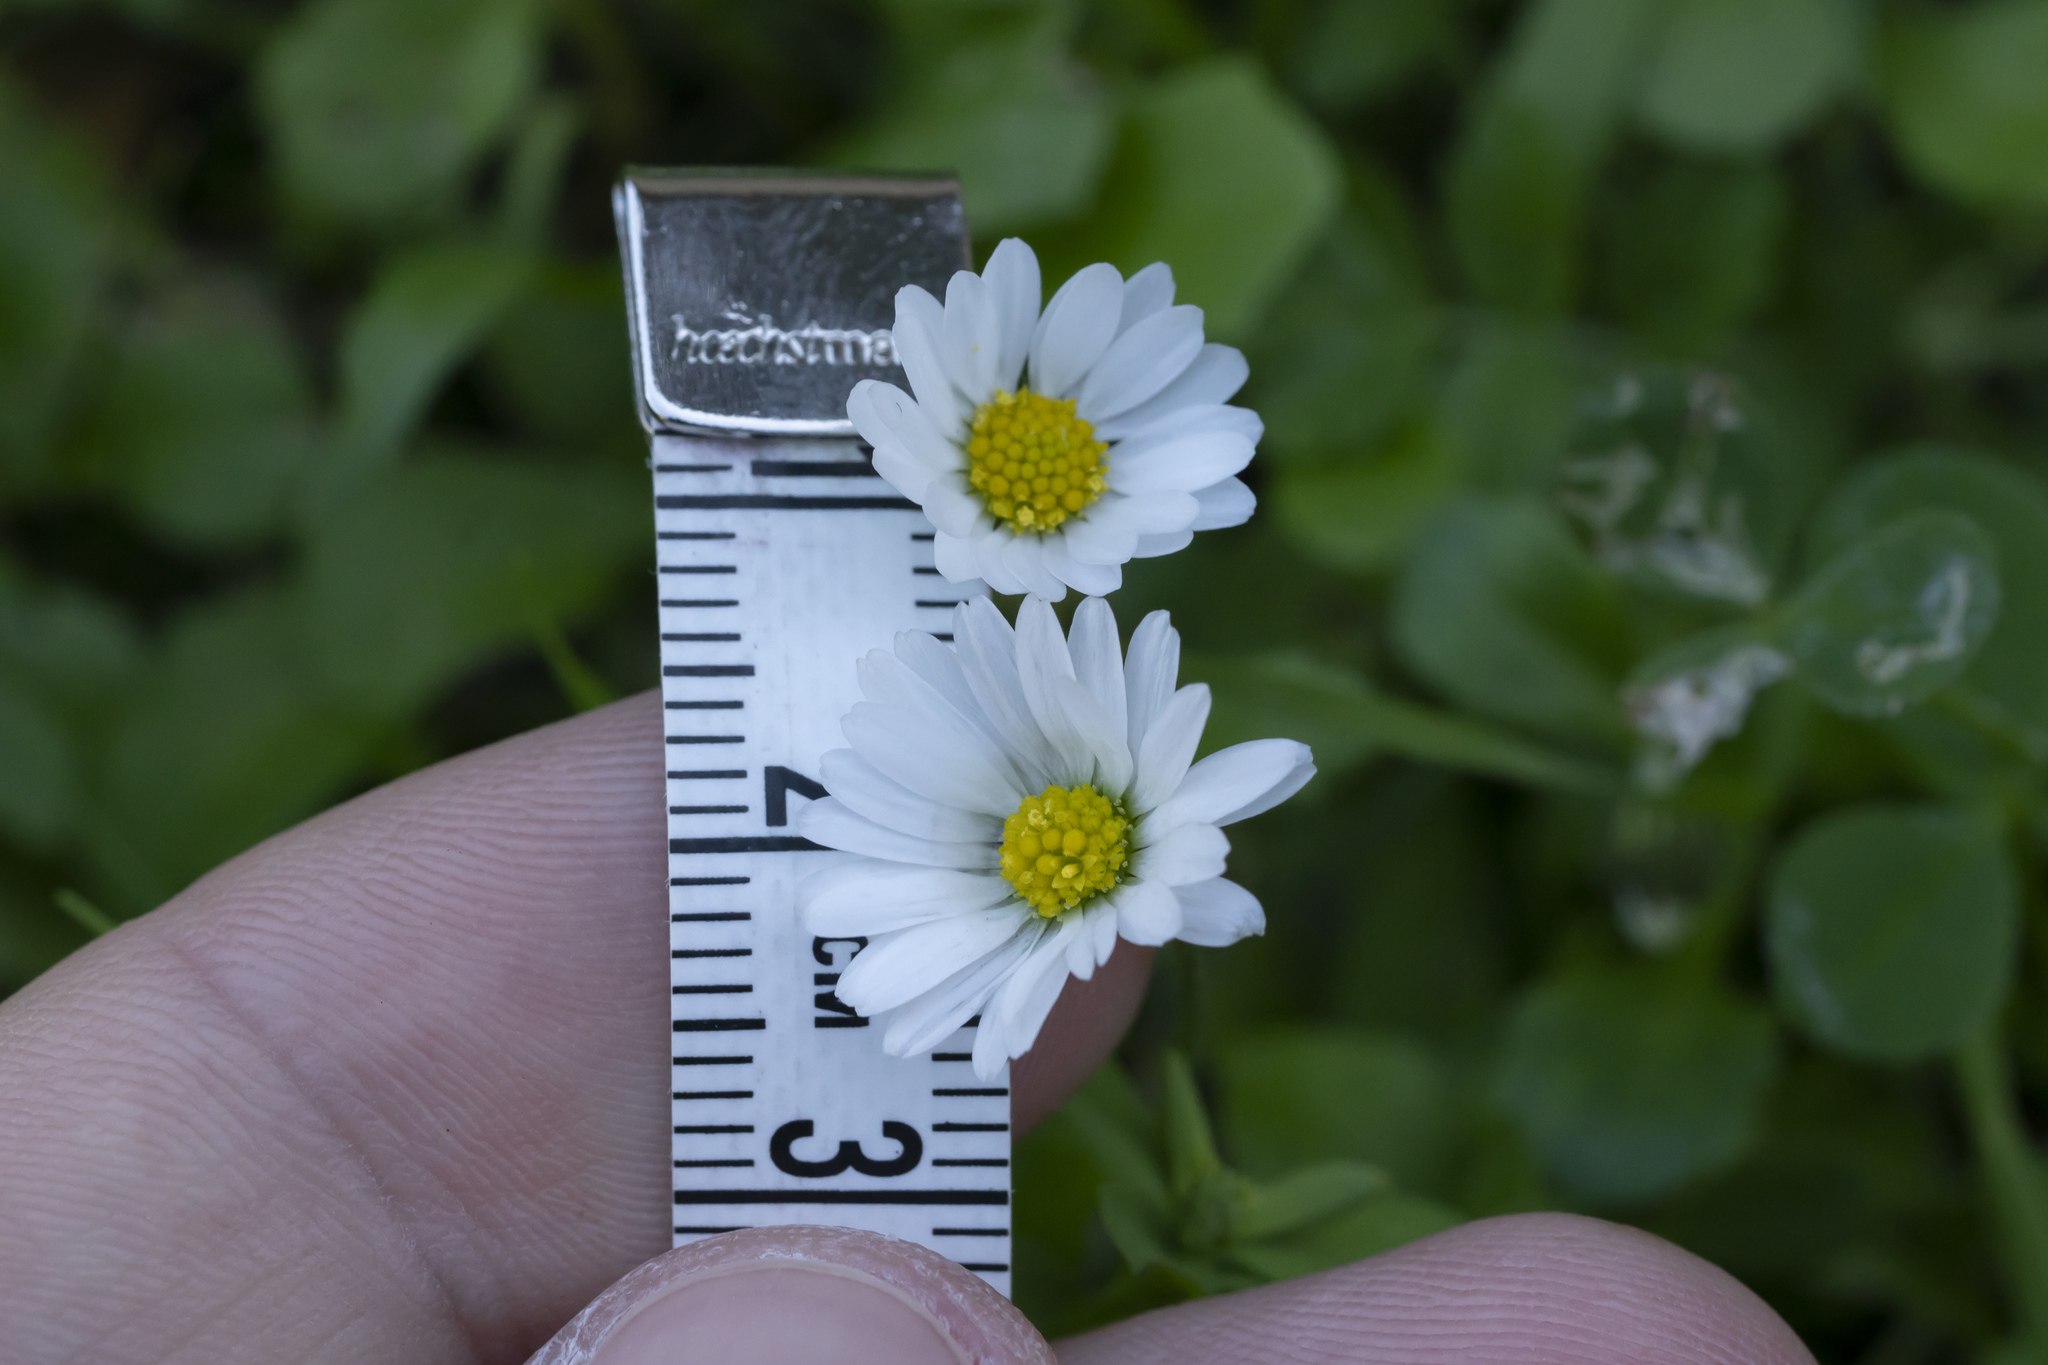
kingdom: Plantae
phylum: Tracheophyta
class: Magnoliopsida
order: Asterales
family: Asteraceae
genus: Bellis
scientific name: Bellis annua
